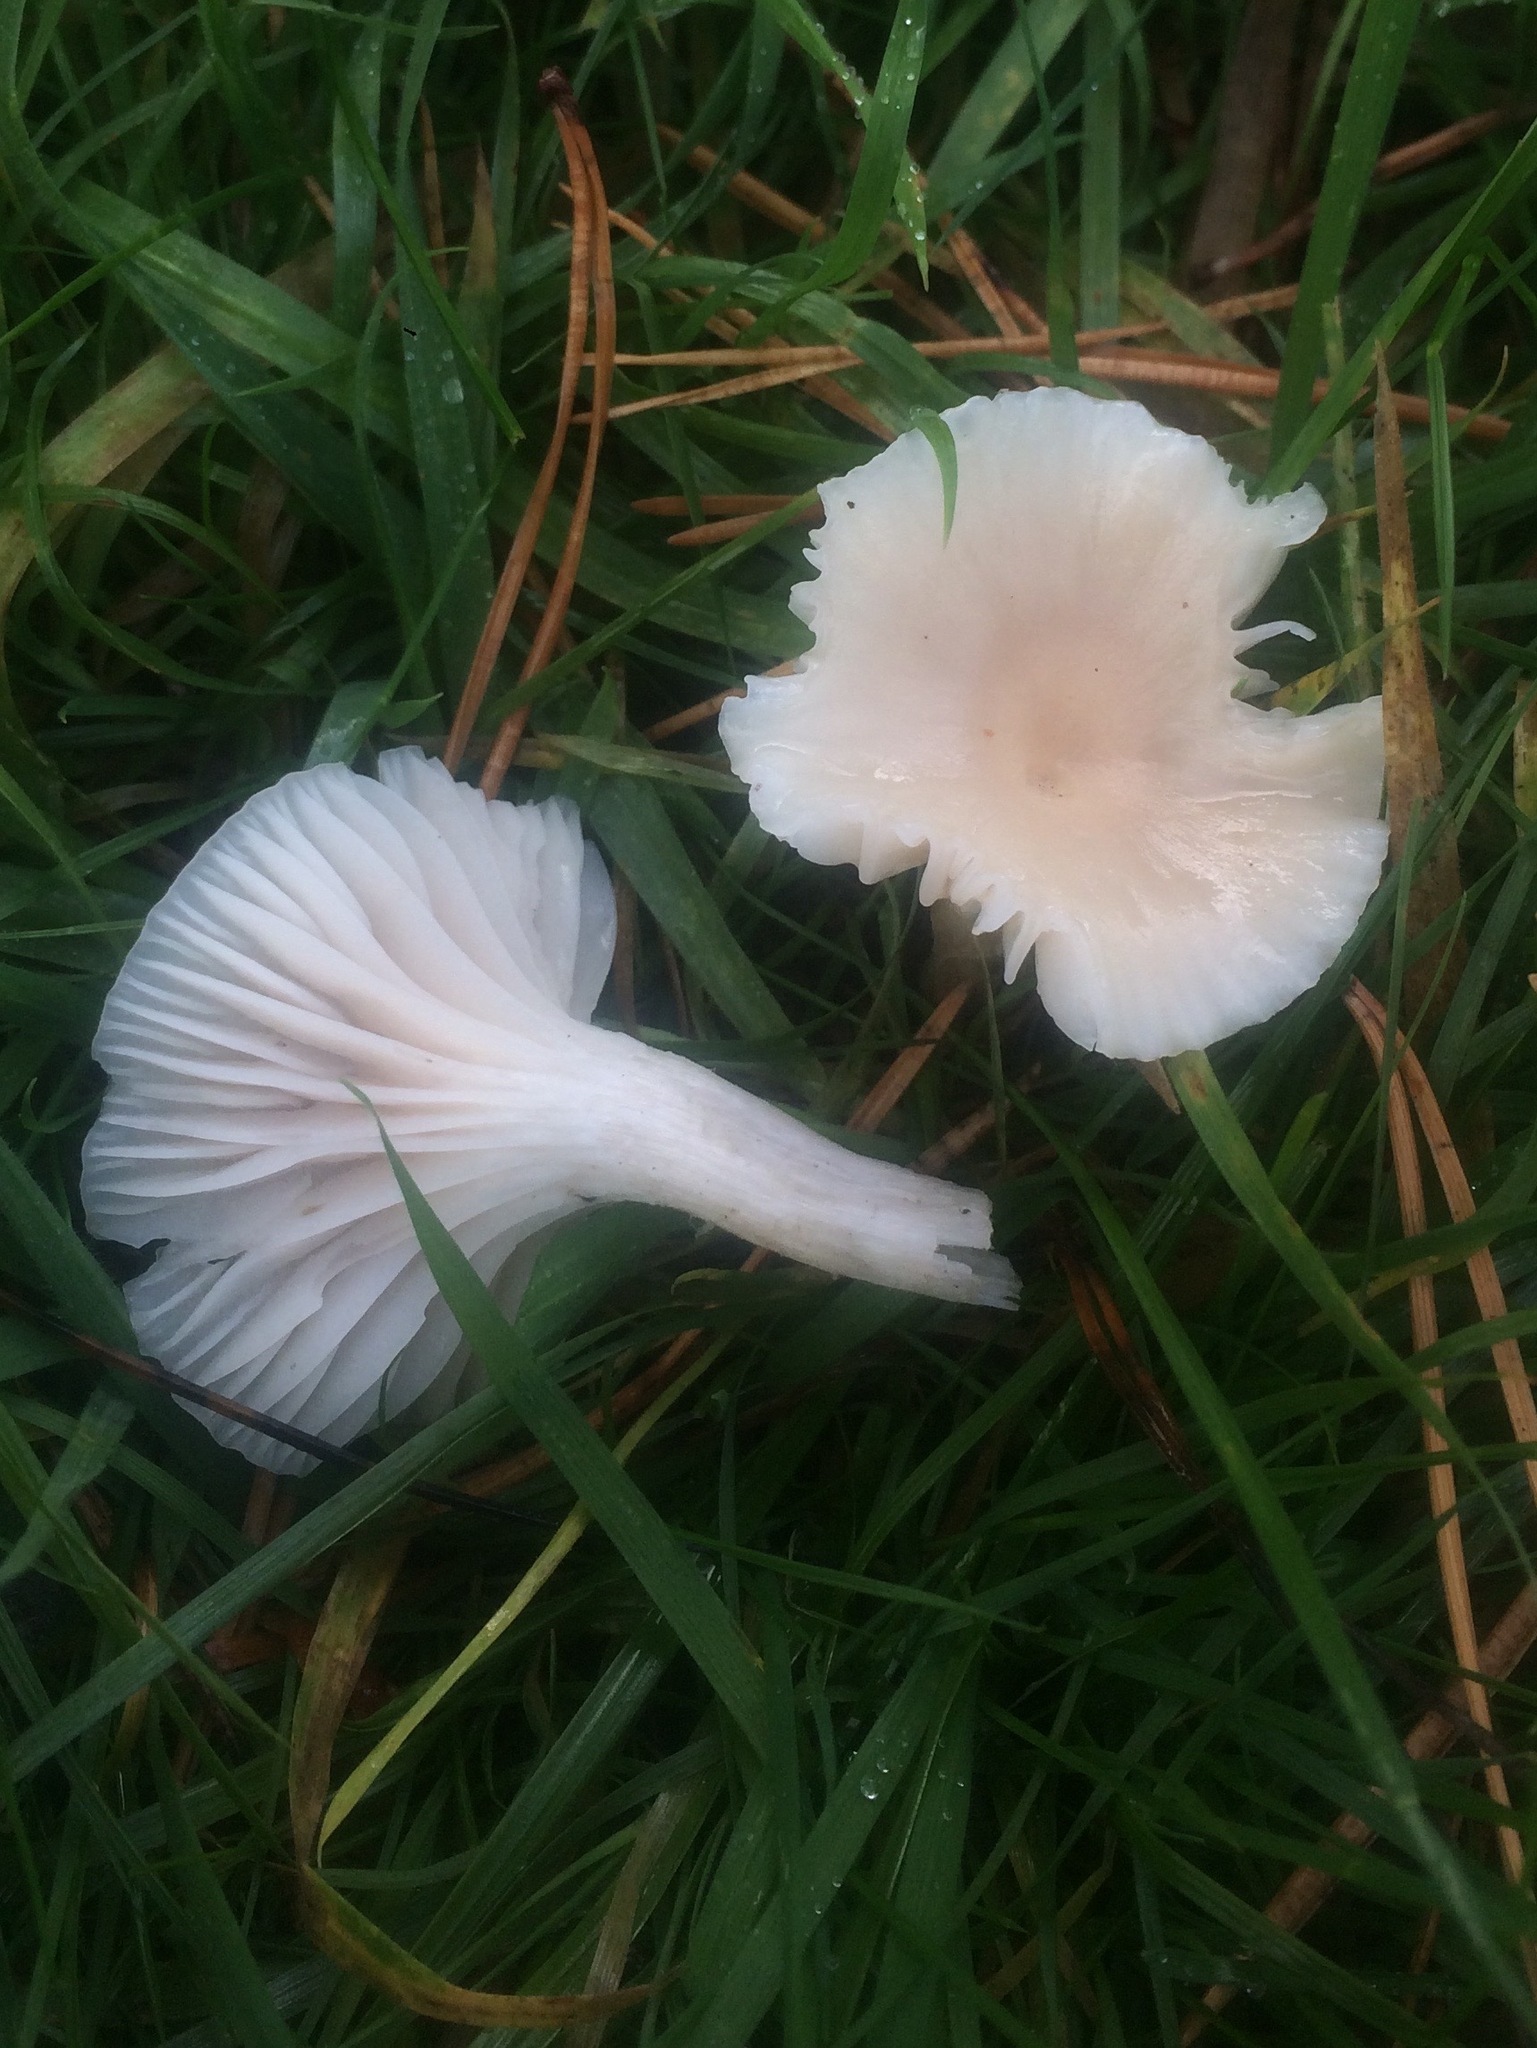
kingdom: Fungi
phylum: Basidiomycota
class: Agaricomycetes
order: Agaricales
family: Hygrophoraceae
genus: Cuphophyllus
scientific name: Cuphophyllus virgineus
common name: Snowy waxcap
